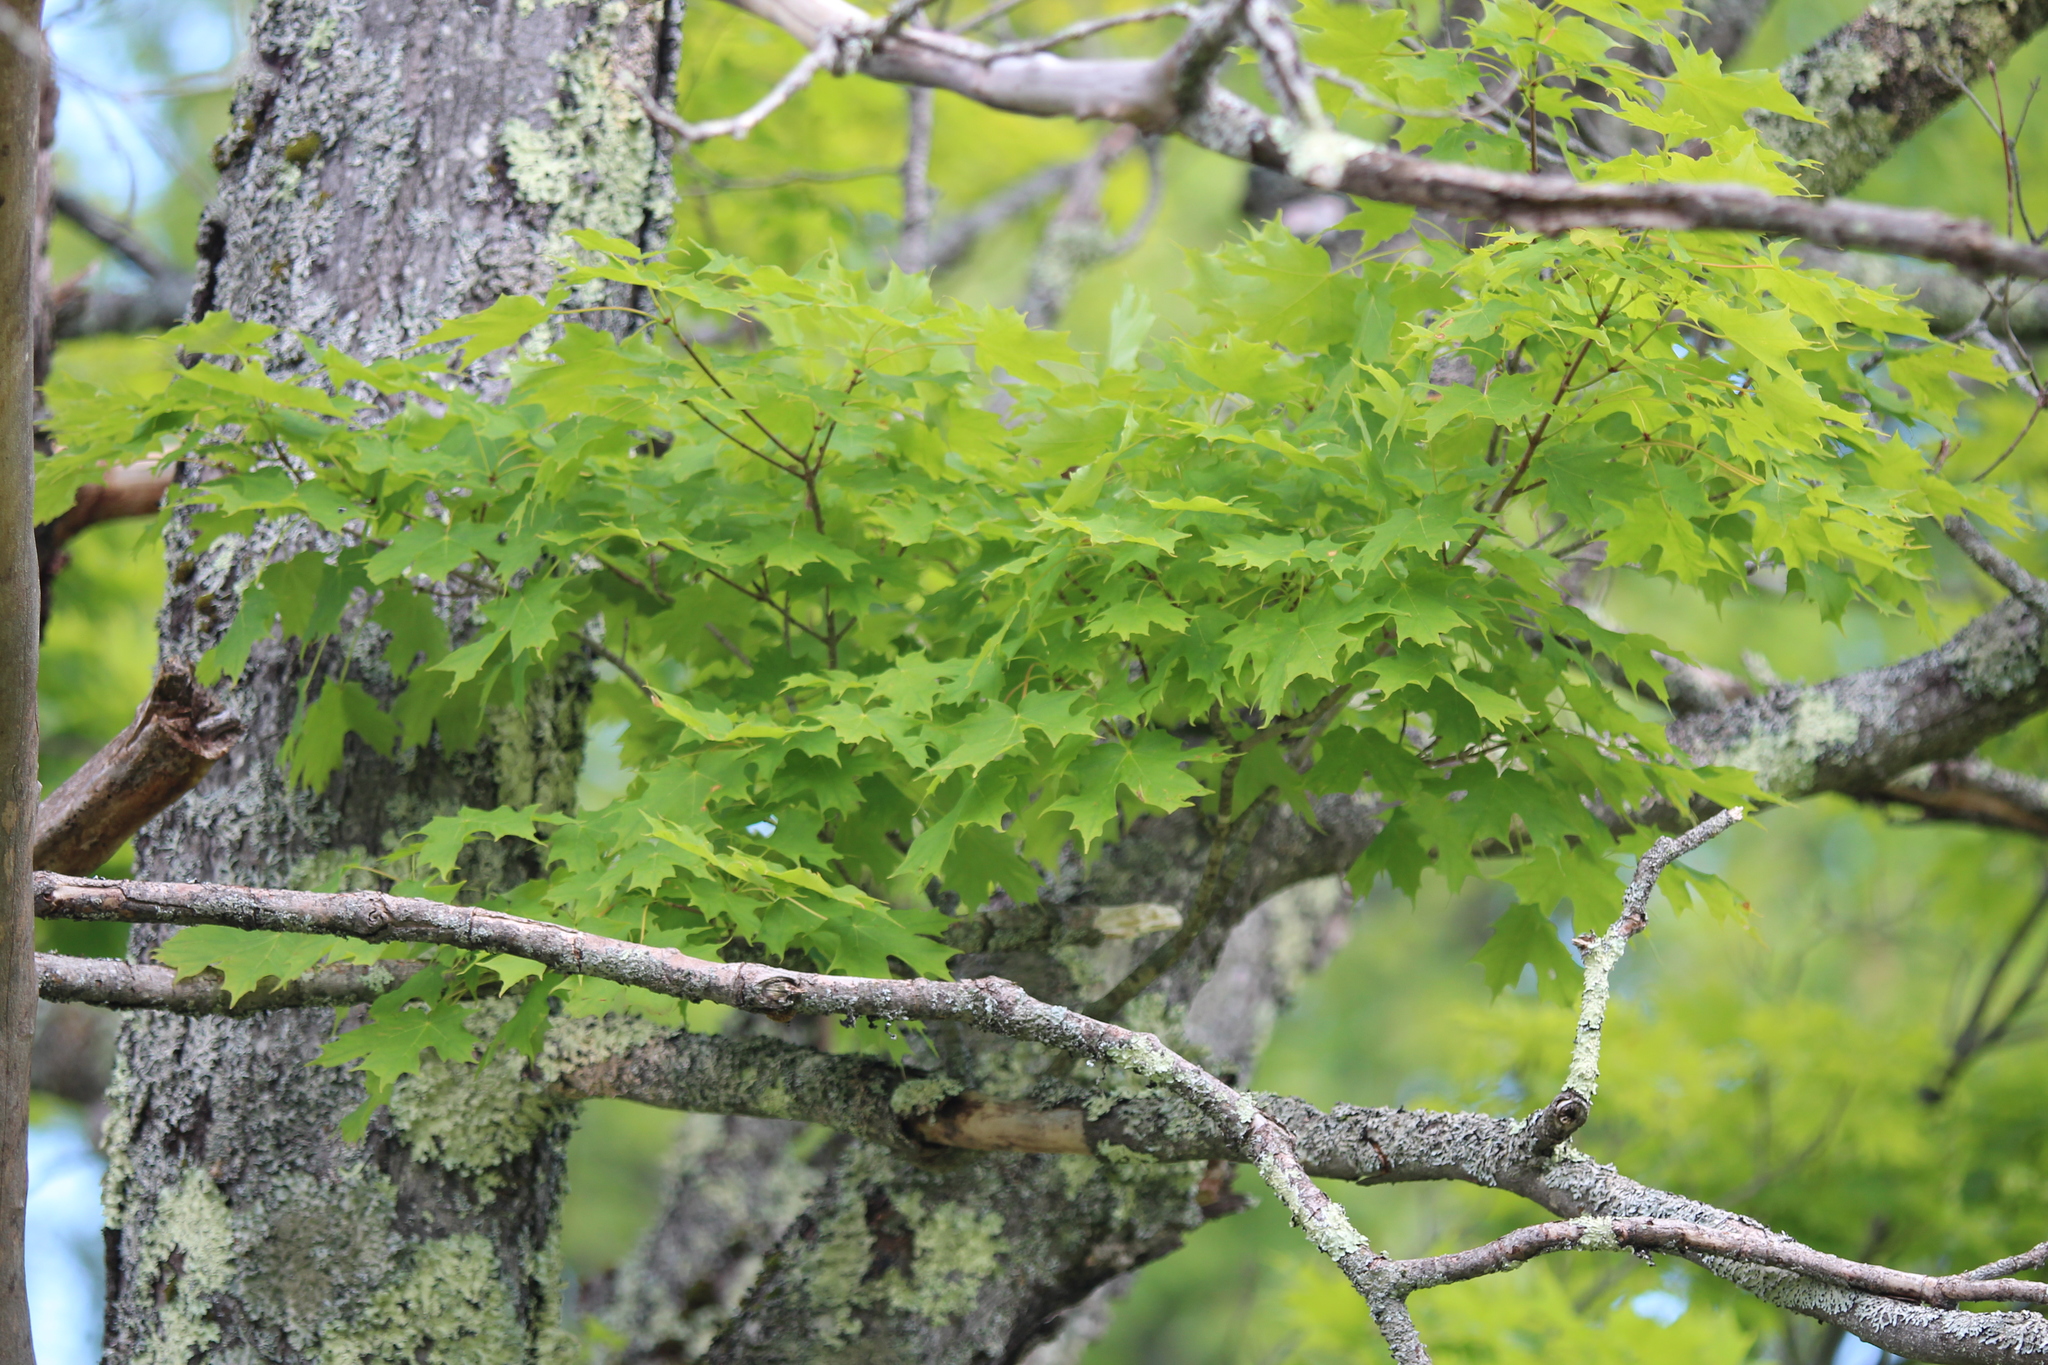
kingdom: Plantae
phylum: Tracheophyta
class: Magnoliopsida
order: Sapindales
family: Sapindaceae
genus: Acer
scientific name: Acer saccharum
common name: Sugar maple
